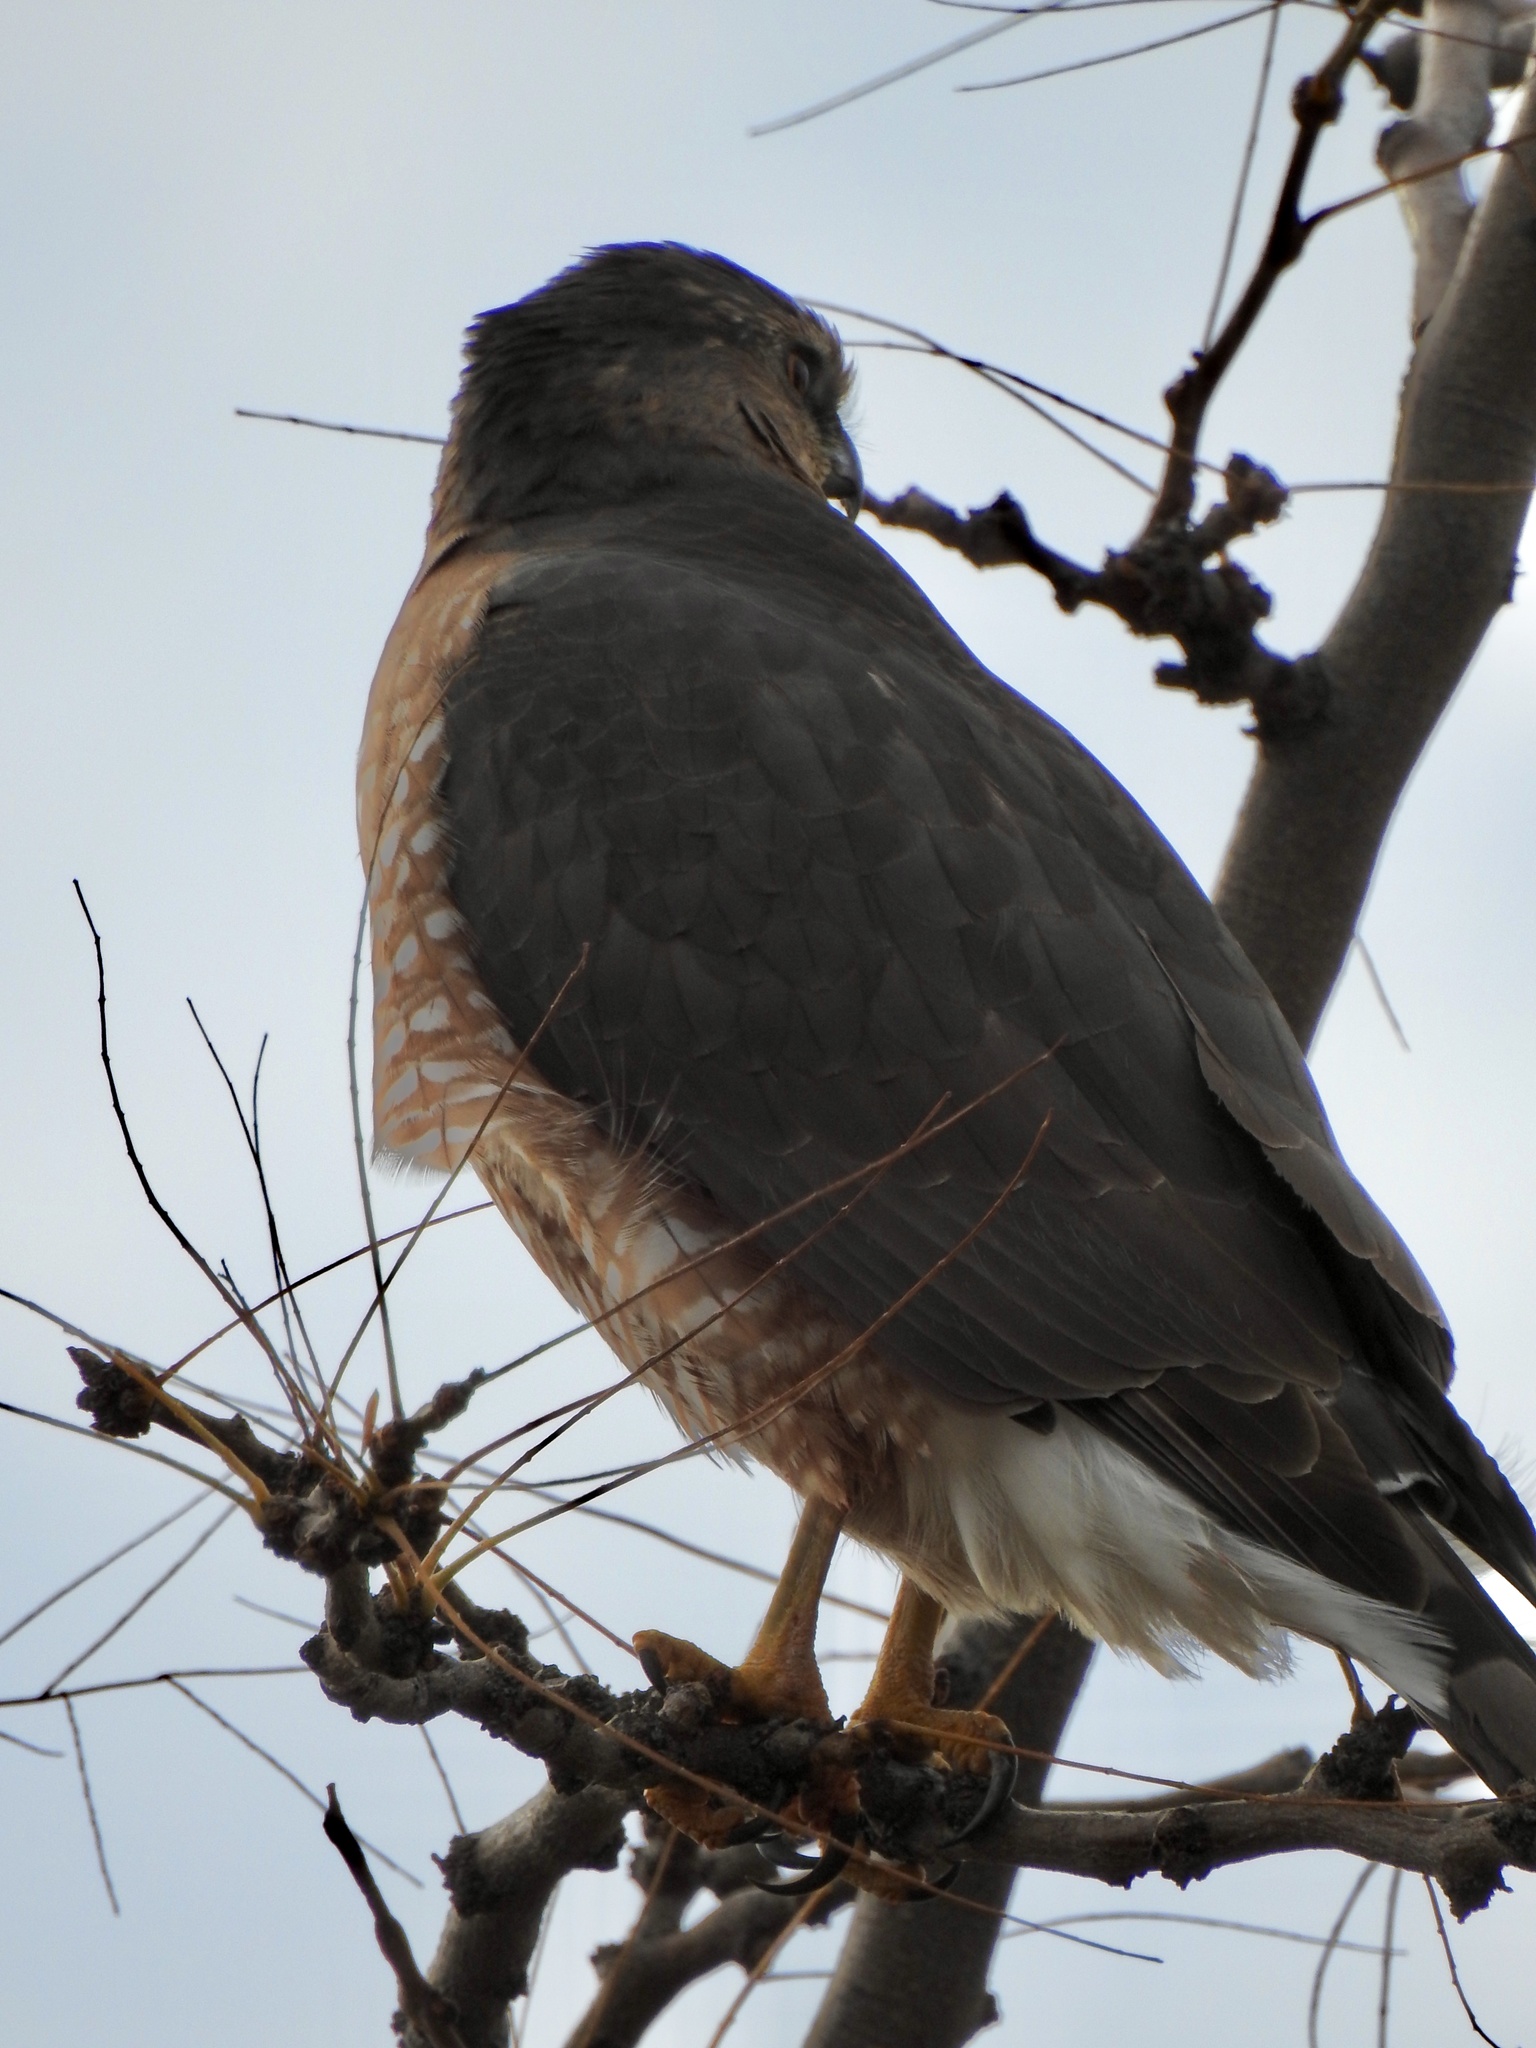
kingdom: Animalia
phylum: Chordata
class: Aves
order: Accipitriformes
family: Accipitridae
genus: Accipiter
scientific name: Accipiter cooperii
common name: Cooper's hawk
